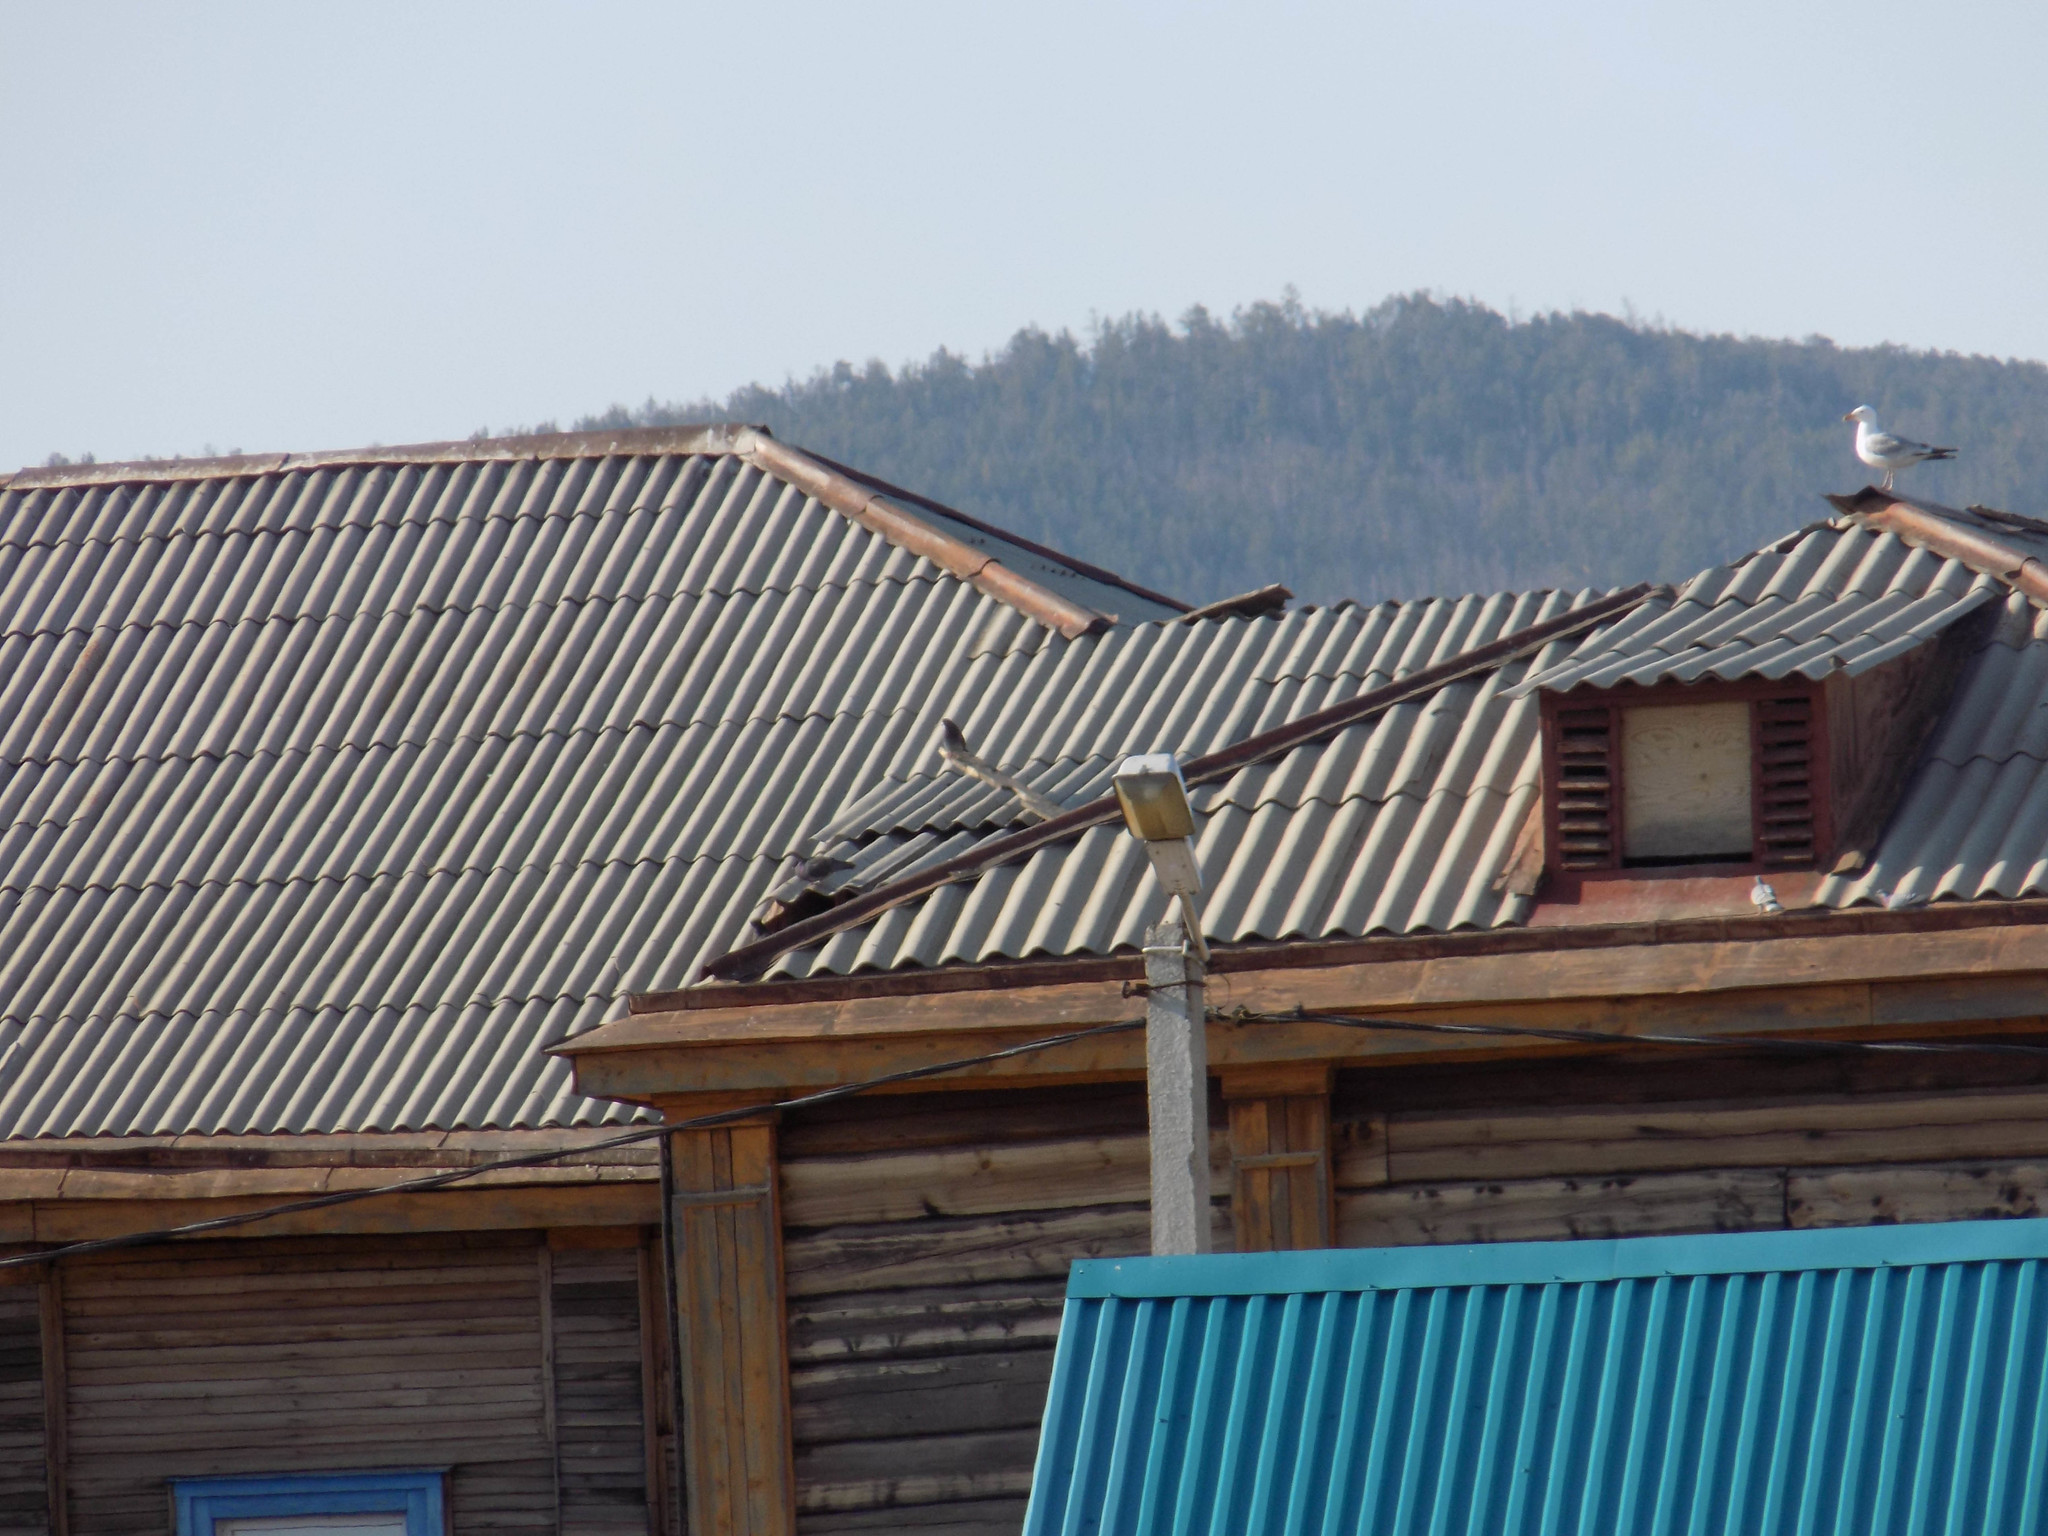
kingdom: Animalia
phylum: Chordata
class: Aves
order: Charadriiformes
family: Laridae
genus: Larus
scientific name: Larus vegae
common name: Vega gull
